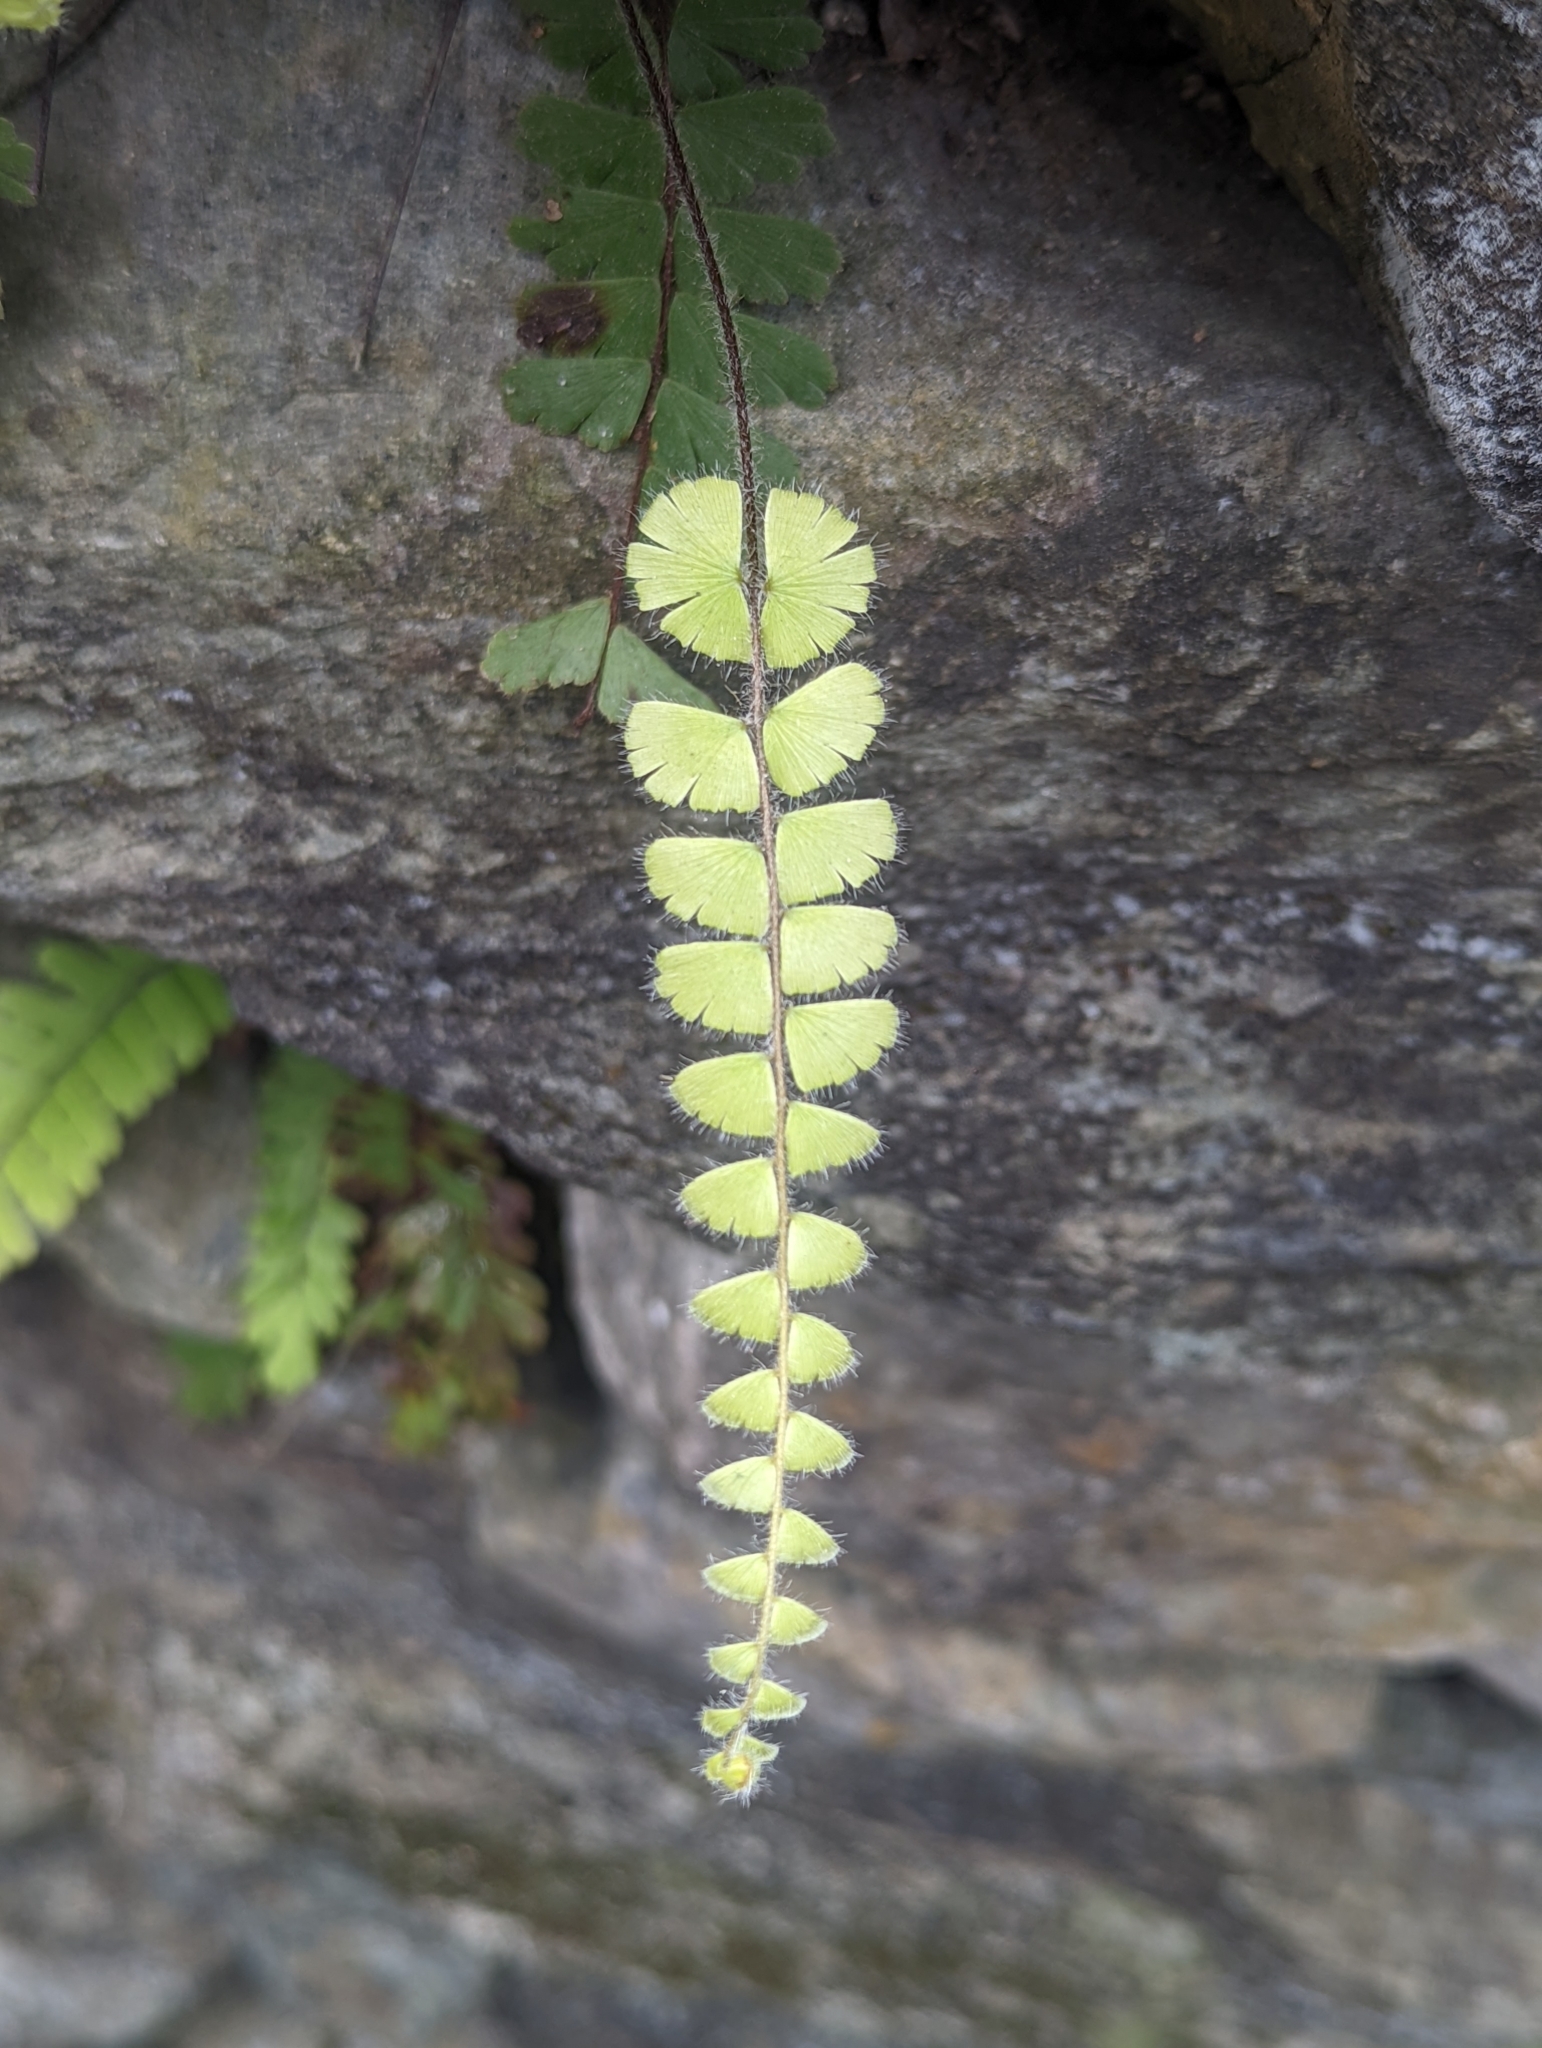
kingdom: Plantae
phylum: Tracheophyta
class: Polypodiopsida
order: Polypodiales
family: Pteridaceae
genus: Adiantum
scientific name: Adiantum ciliatum
